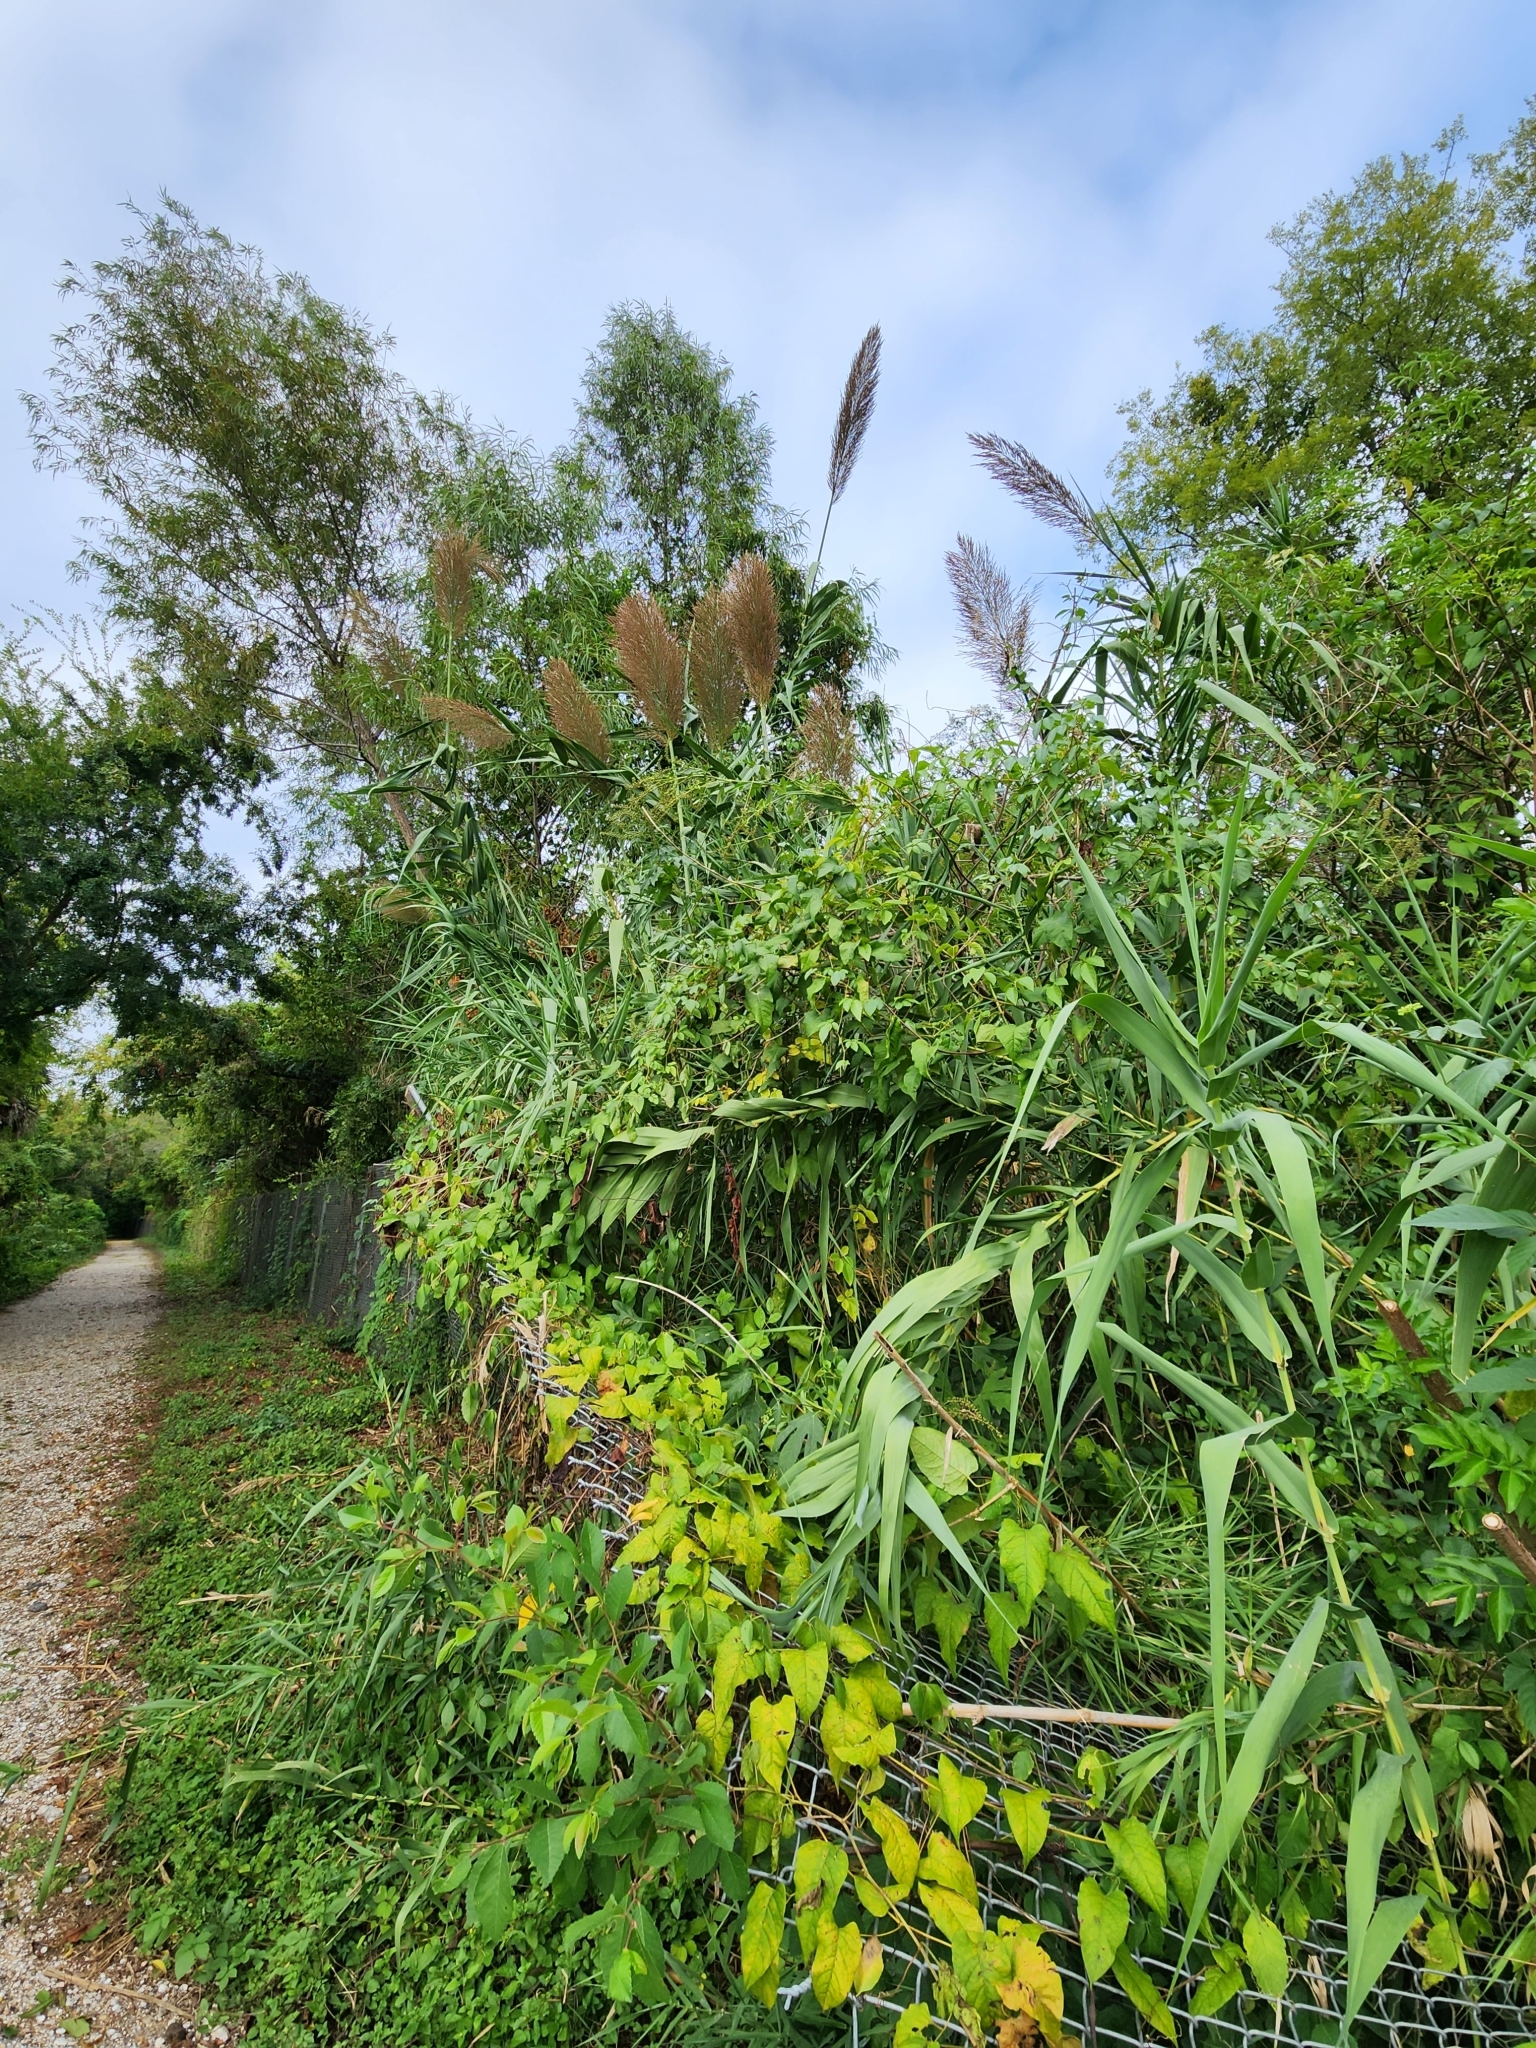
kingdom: Plantae
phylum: Tracheophyta
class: Liliopsida
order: Poales
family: Poaceae
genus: Arundo
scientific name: Arundo donax
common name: Giant reed
